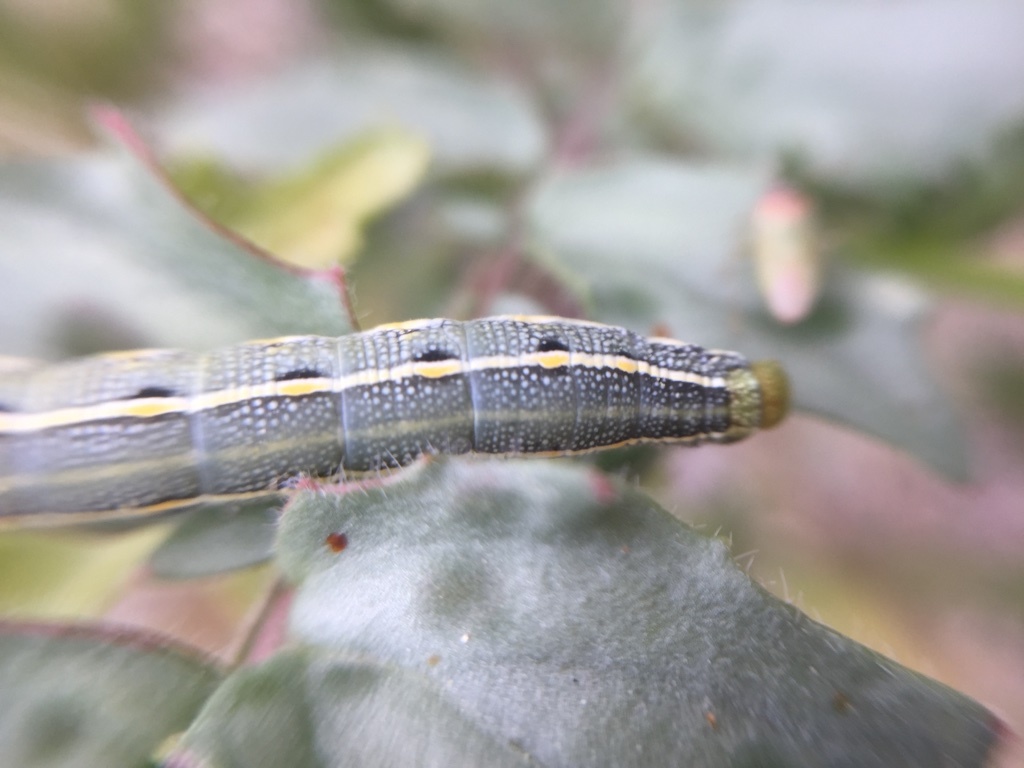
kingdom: Animalia
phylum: Arthropoda
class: Insecta
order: Lepidoptera
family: Sphingidae
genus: Hyles
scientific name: Hyles lineata
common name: White-lined sphinx
